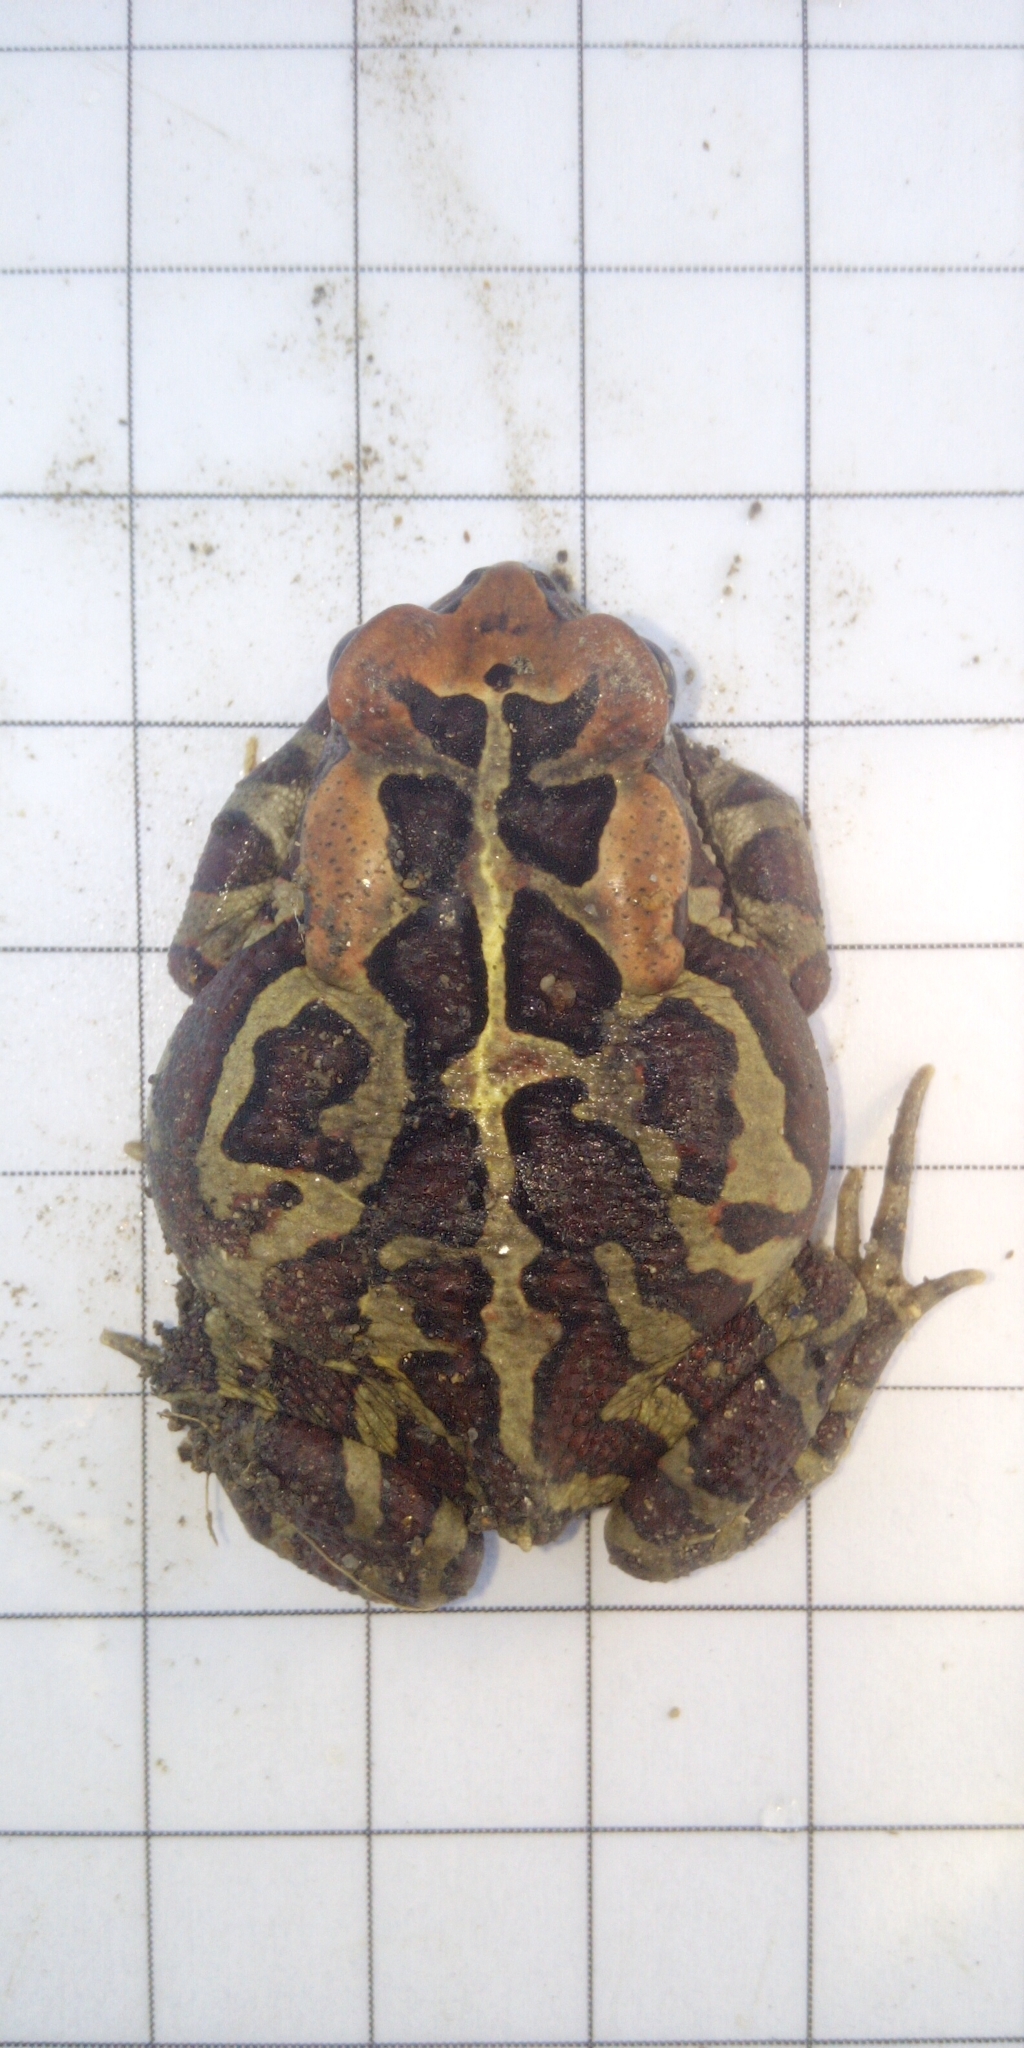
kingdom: Animalia
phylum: Chordata
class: Amphibia
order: Anura
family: Bufonidae
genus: Sclerophrys
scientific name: Sclerophrys pantherina
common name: Panther toad
